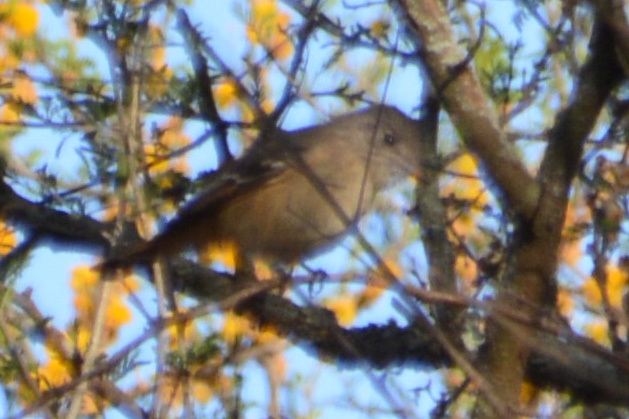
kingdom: Animalia
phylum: Chordata
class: Aves
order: Passeriformes
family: Tyrannidae
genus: Knipolegus
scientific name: Knipolegus aterrimus
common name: White-winged black tyrant
